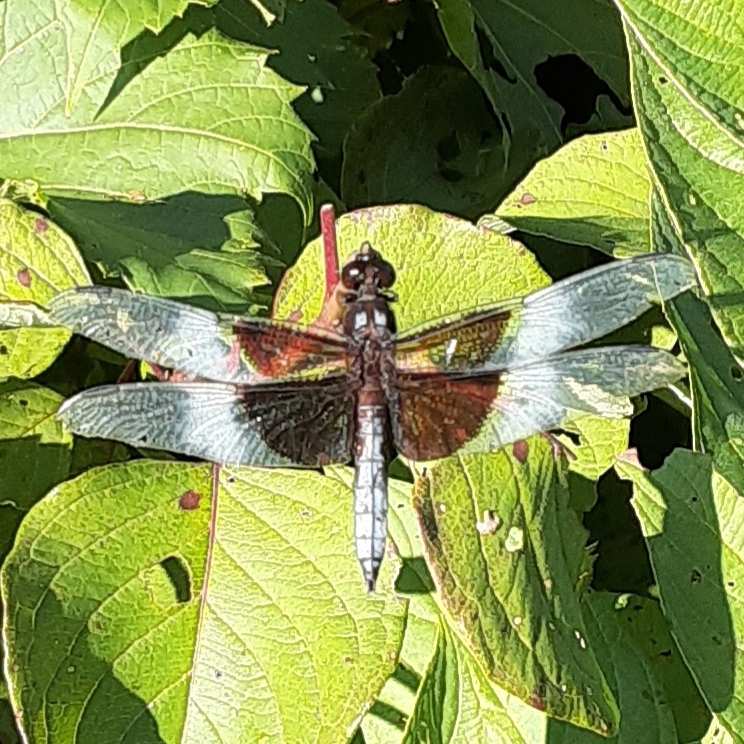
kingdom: Animalia
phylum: Arthropoda
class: Insecta
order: Odonata
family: Libellulidae
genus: Libellula
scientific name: Libellula luctuosa
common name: Widow skimmer
